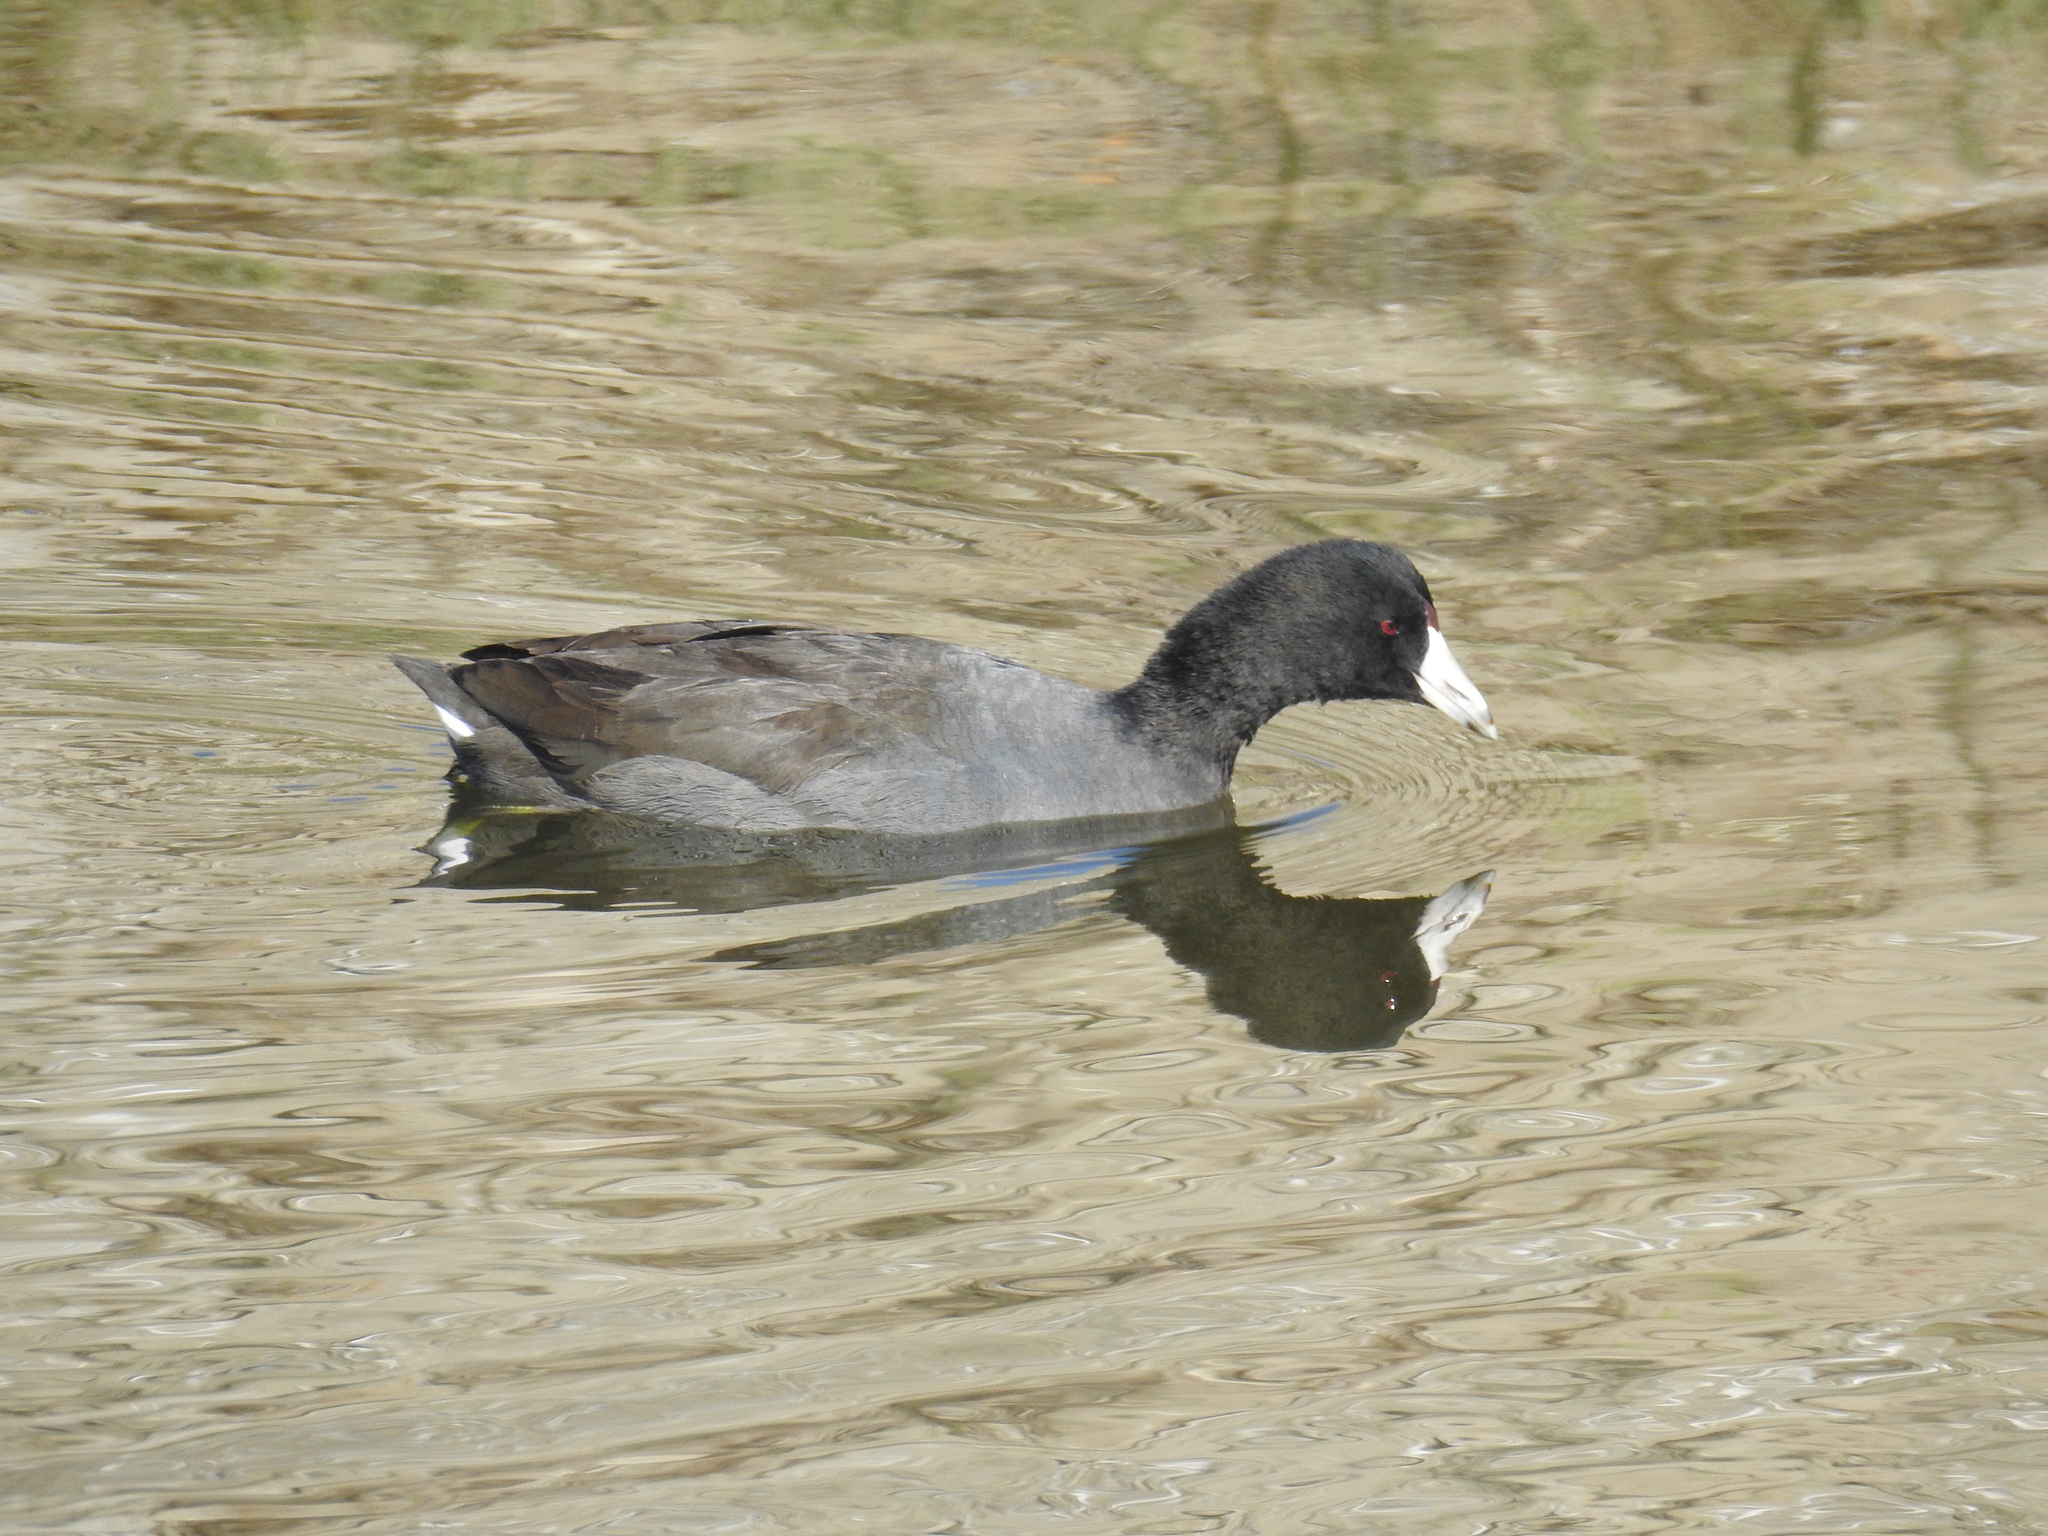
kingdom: Animalia
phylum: Chordata
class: Aves
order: Gruiformes
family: Rallidae
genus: Fulica
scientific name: Fulica americana
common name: American coot
